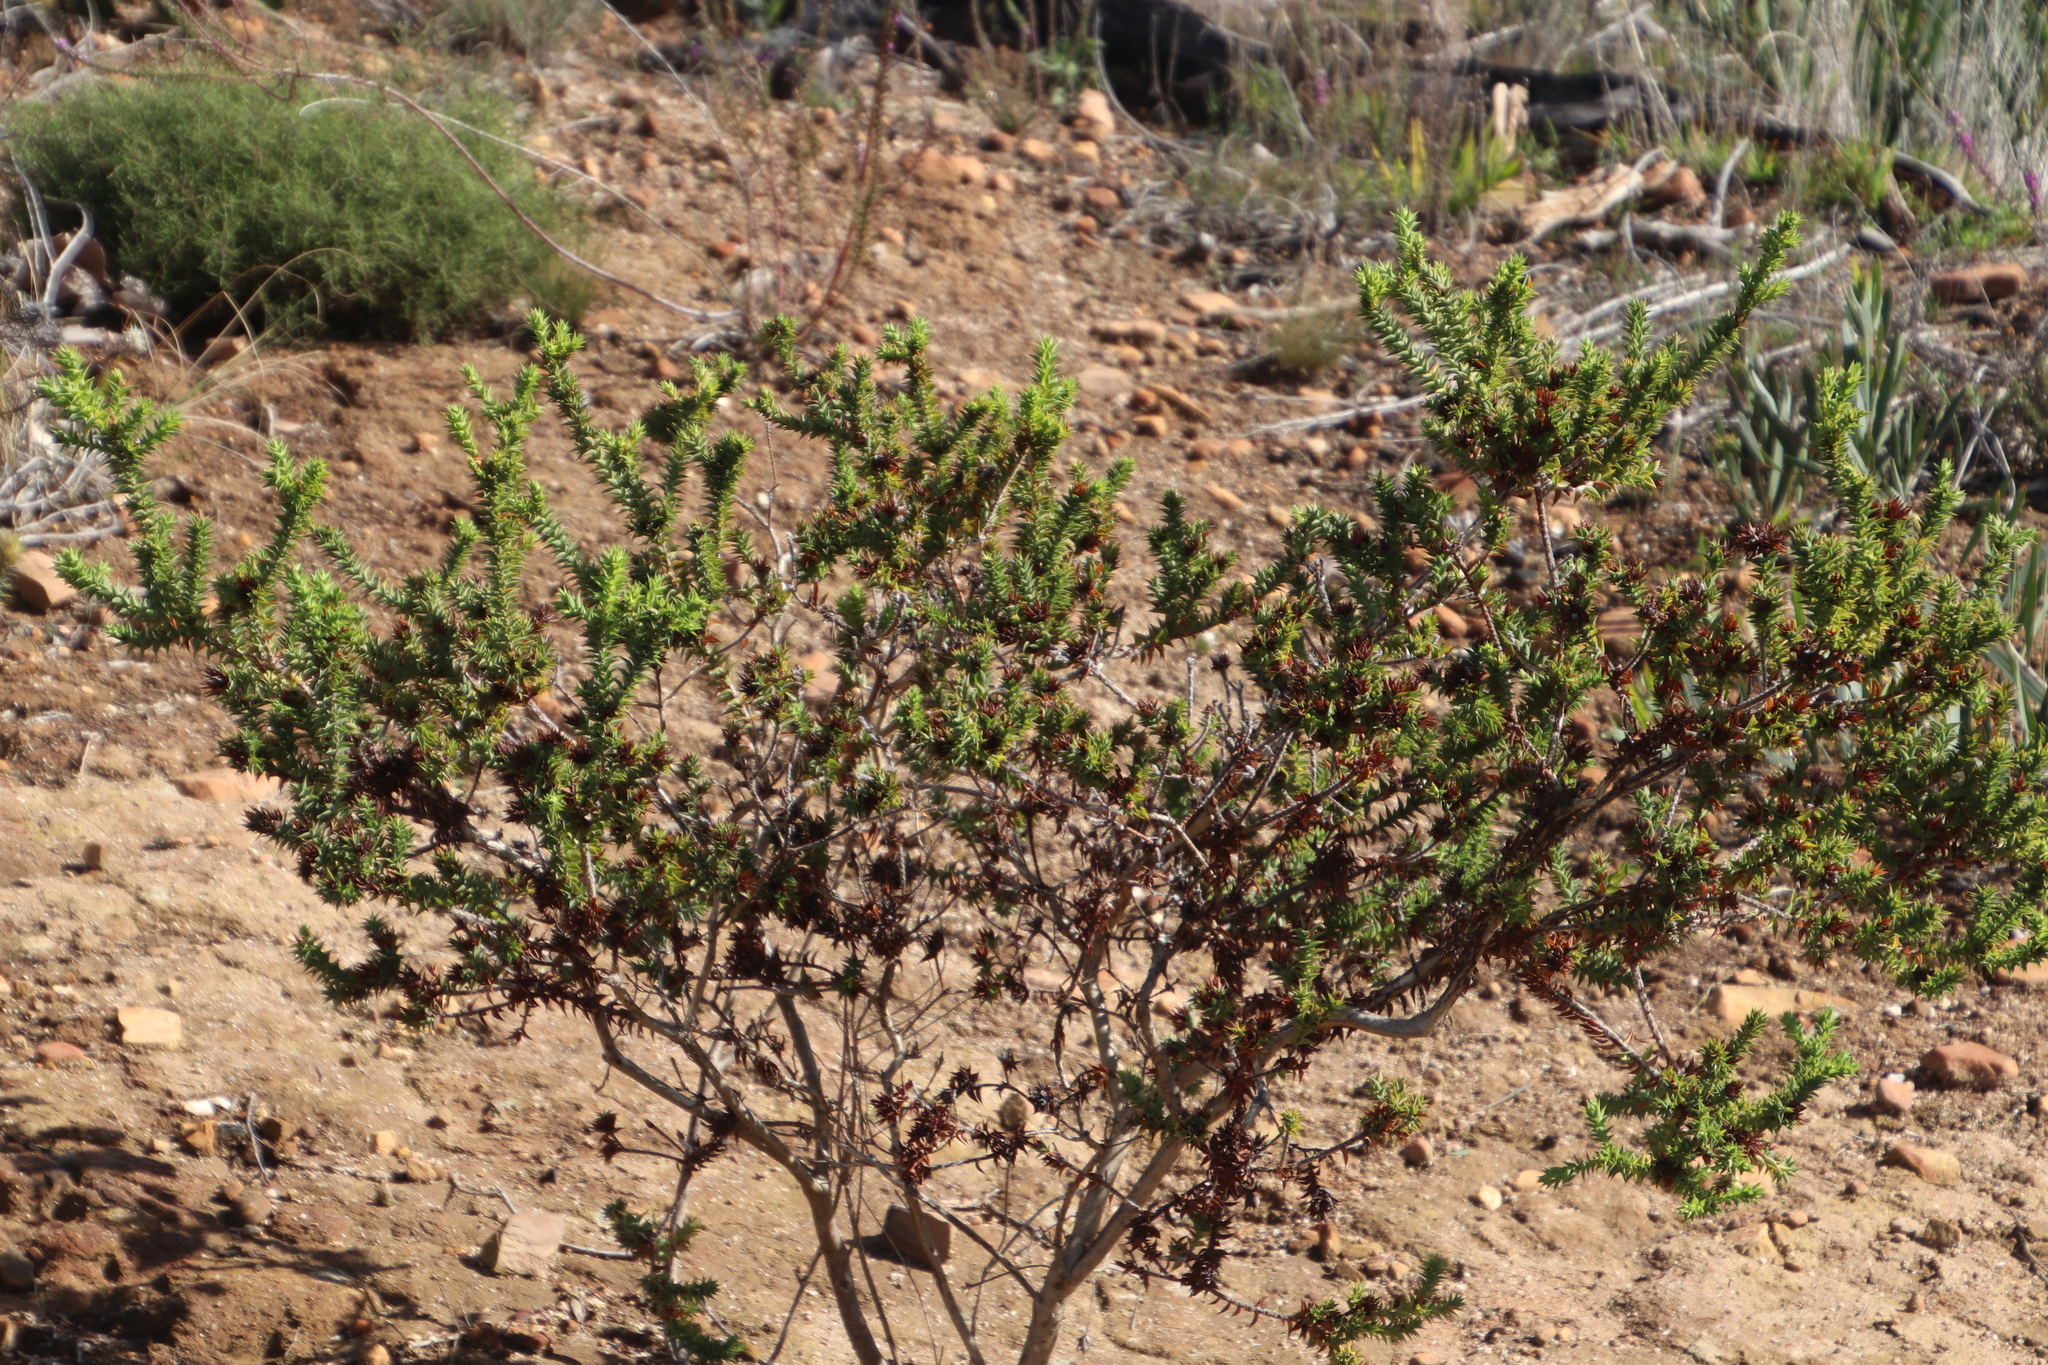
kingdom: Plantae
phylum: Tracheophyta
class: Magnoliopsida
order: Fabales
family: Fabaceae
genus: Aspalathus
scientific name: Aspalathus cordata
